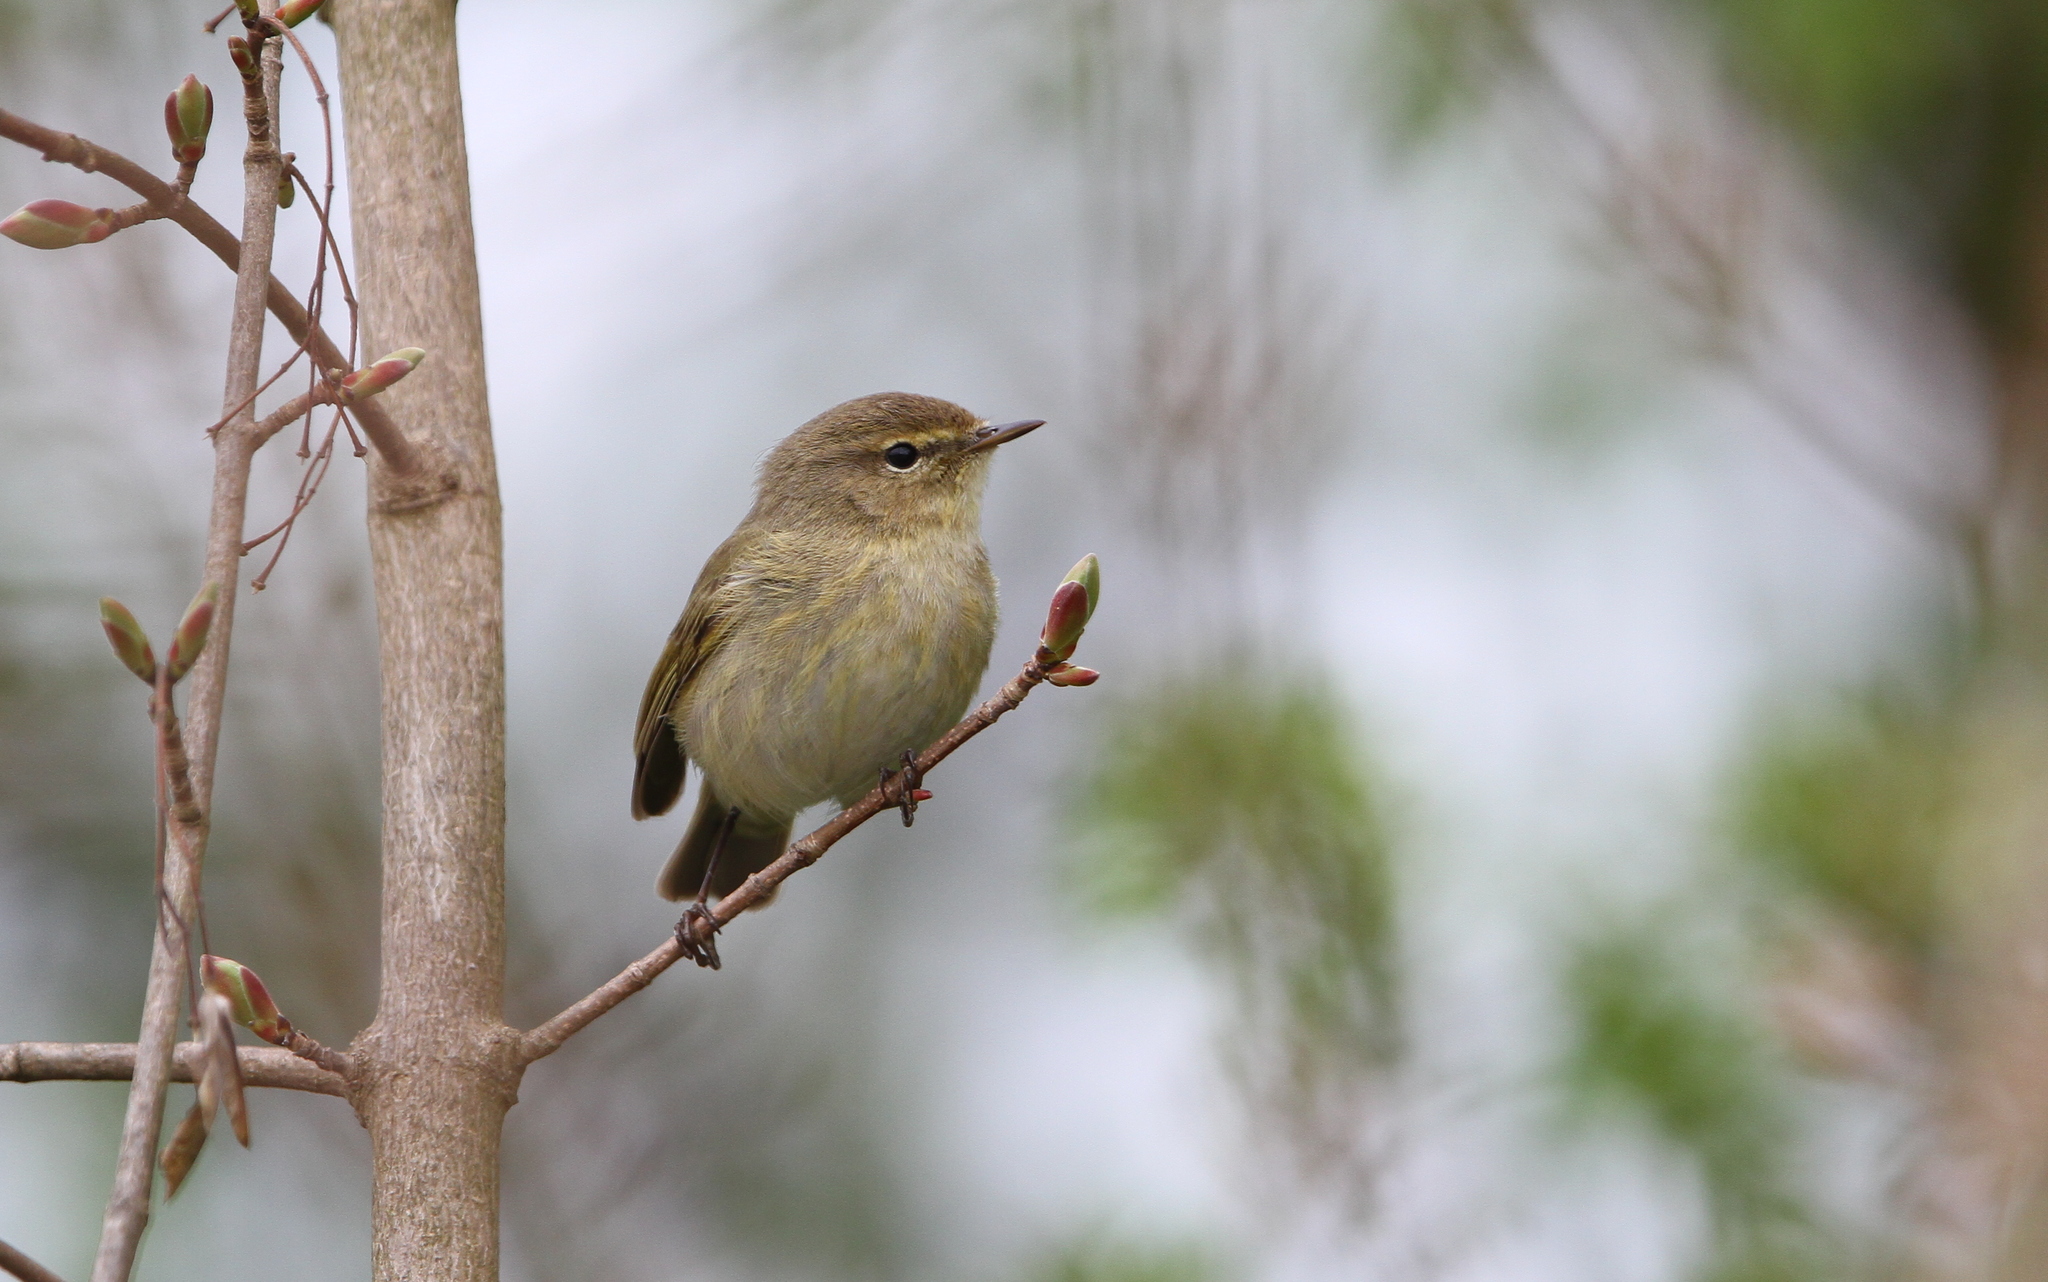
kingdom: Animalia
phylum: Chordata
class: Aves
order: Passeriformes
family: Phylloscopidae
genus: Phylloscopus
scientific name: Phylloscopus collybita
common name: Common chiffchaff
